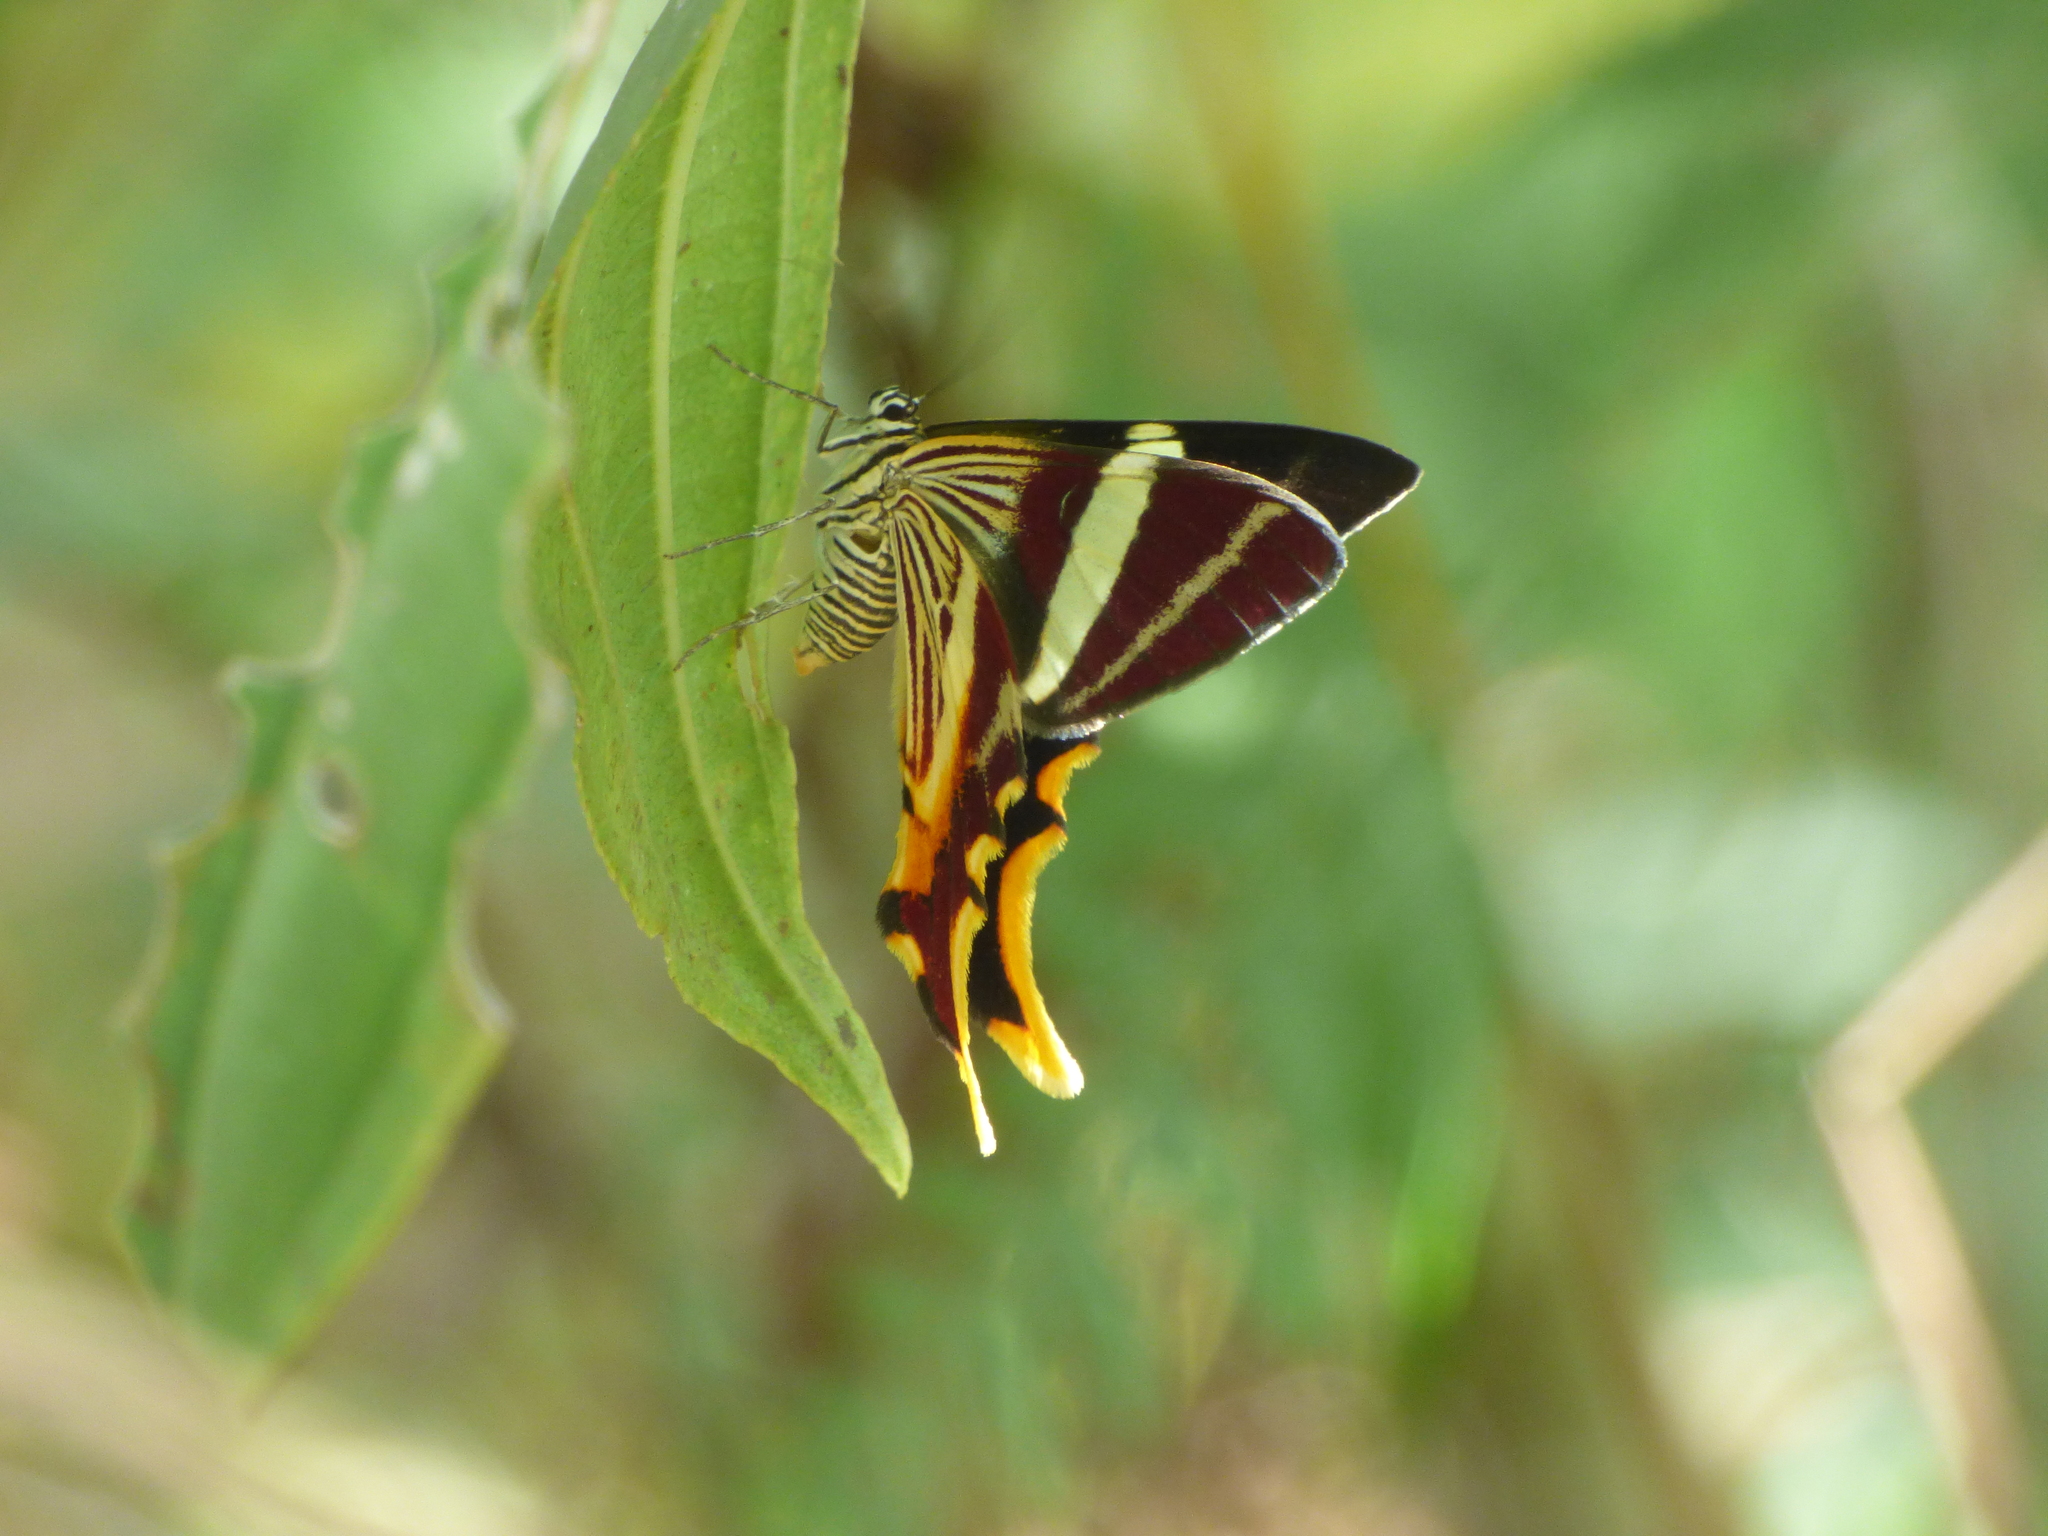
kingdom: Animalia
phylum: Arthropoda
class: Insecta
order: Lepidoptera
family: Geometridae
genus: Erateina
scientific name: Erateina staudingeri
